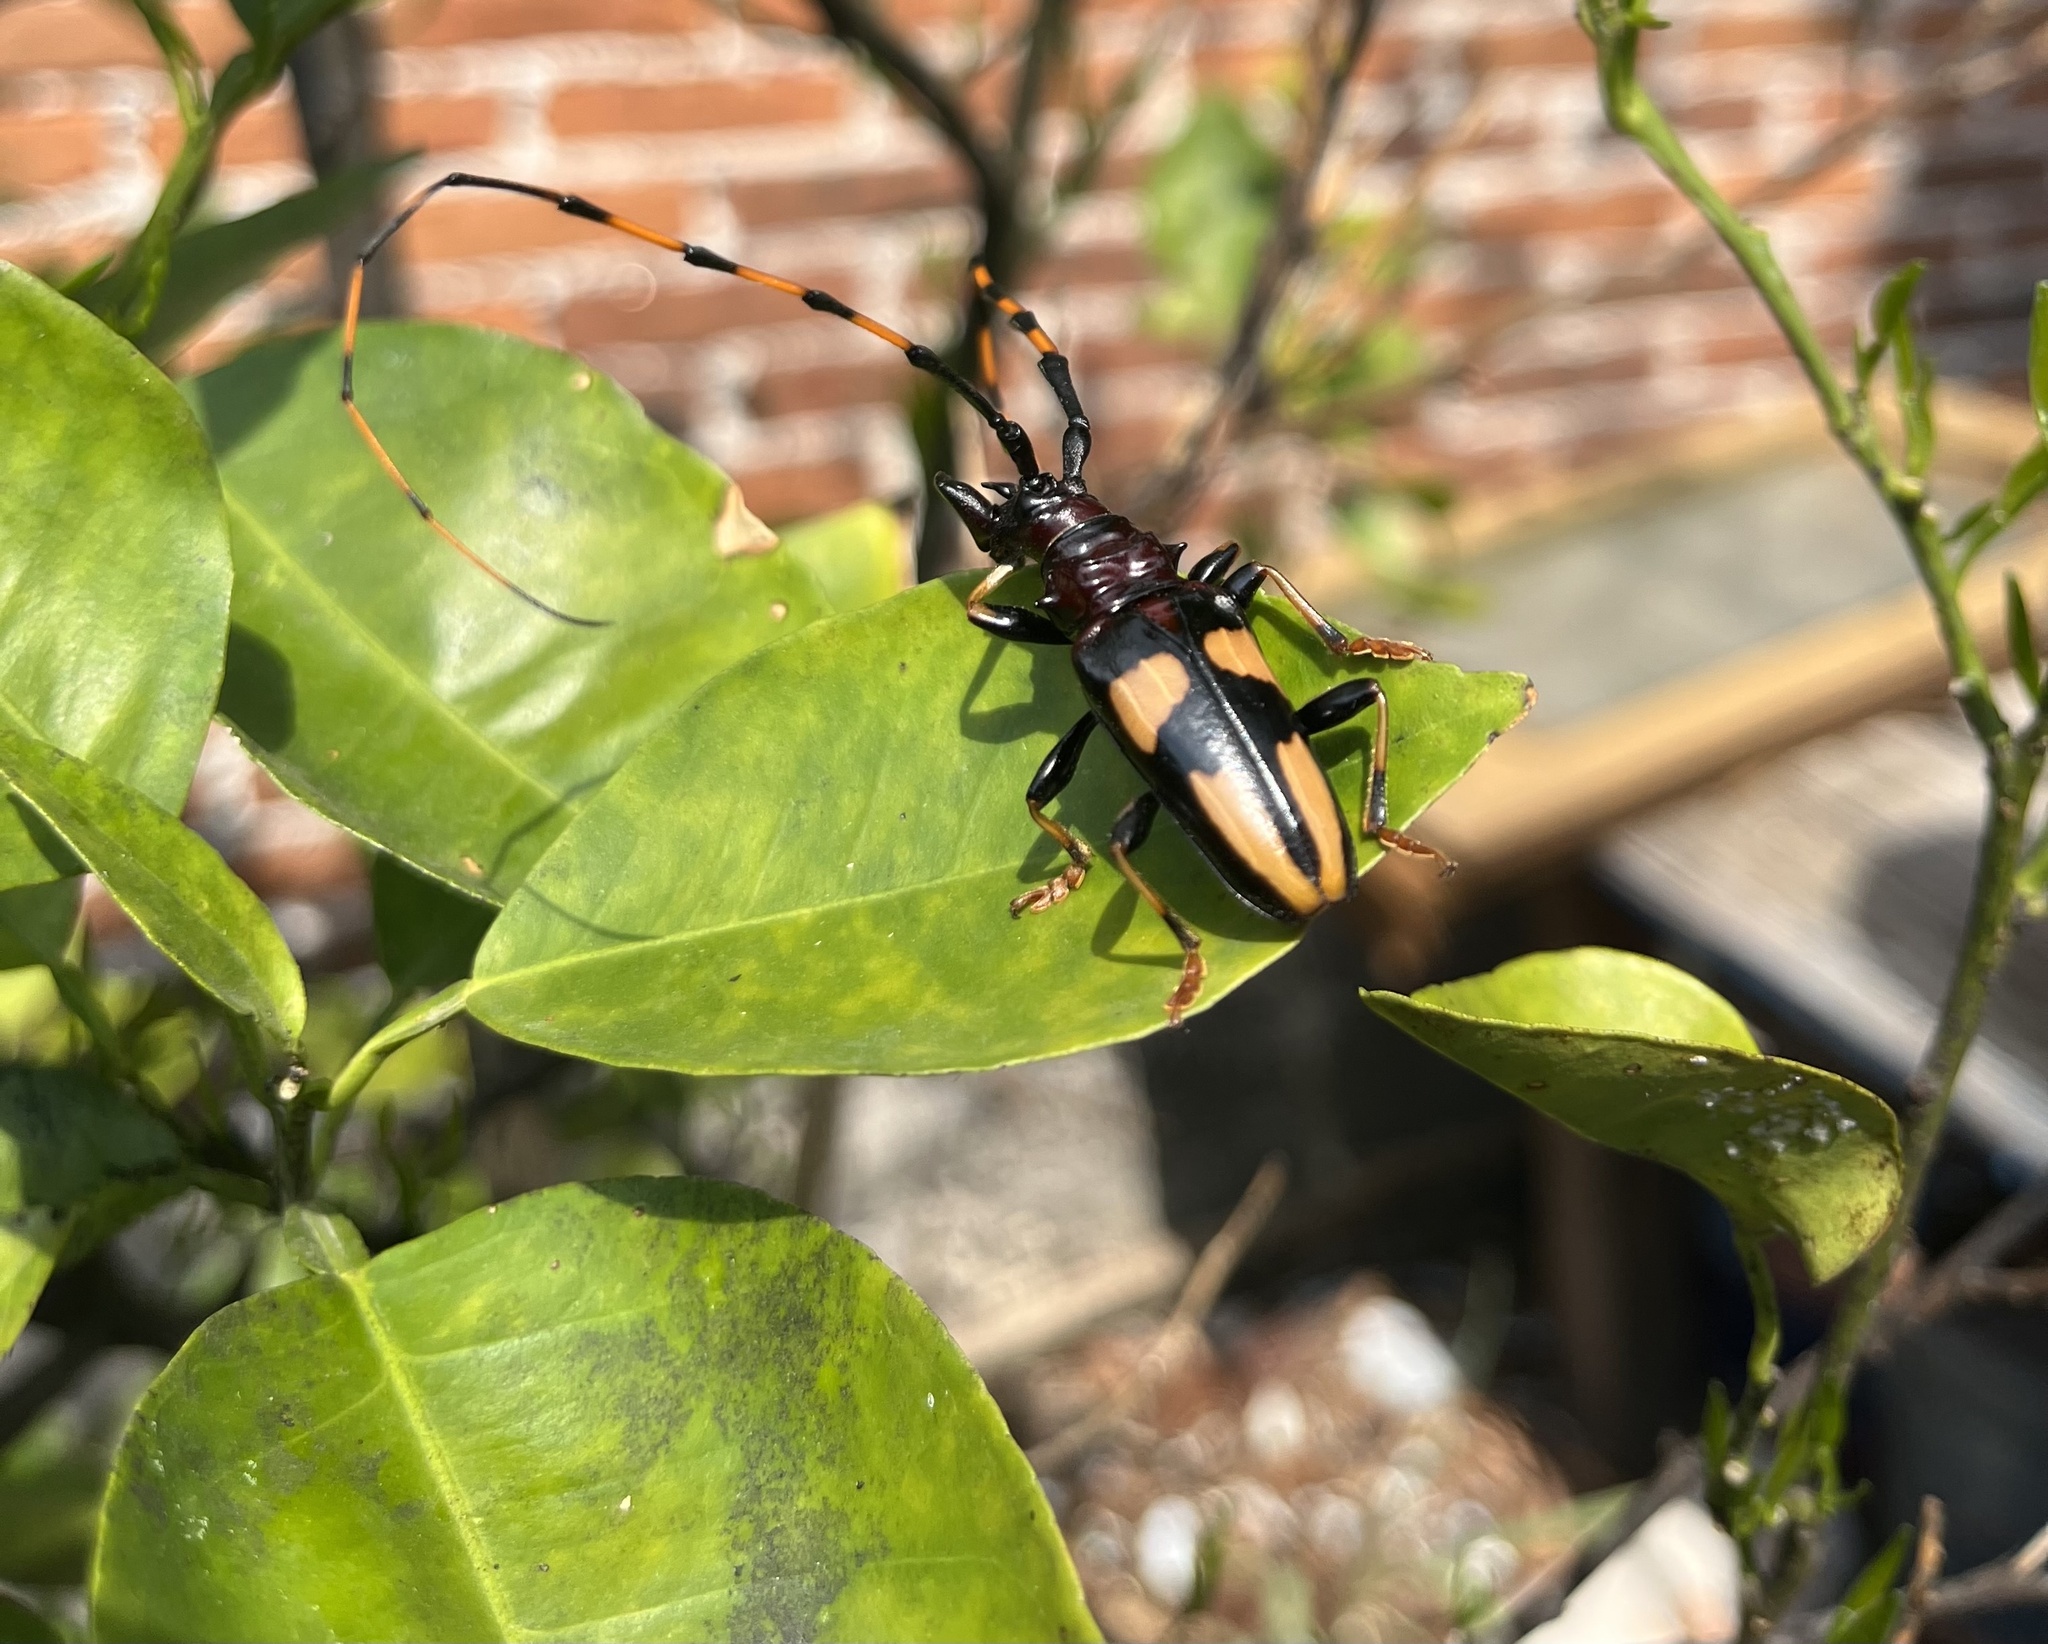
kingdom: Animalia
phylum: Arthropoda
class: Insecta
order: Coleoptera
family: Cerambycidae
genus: Trachyderes
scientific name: Trachyderes mandibularis
